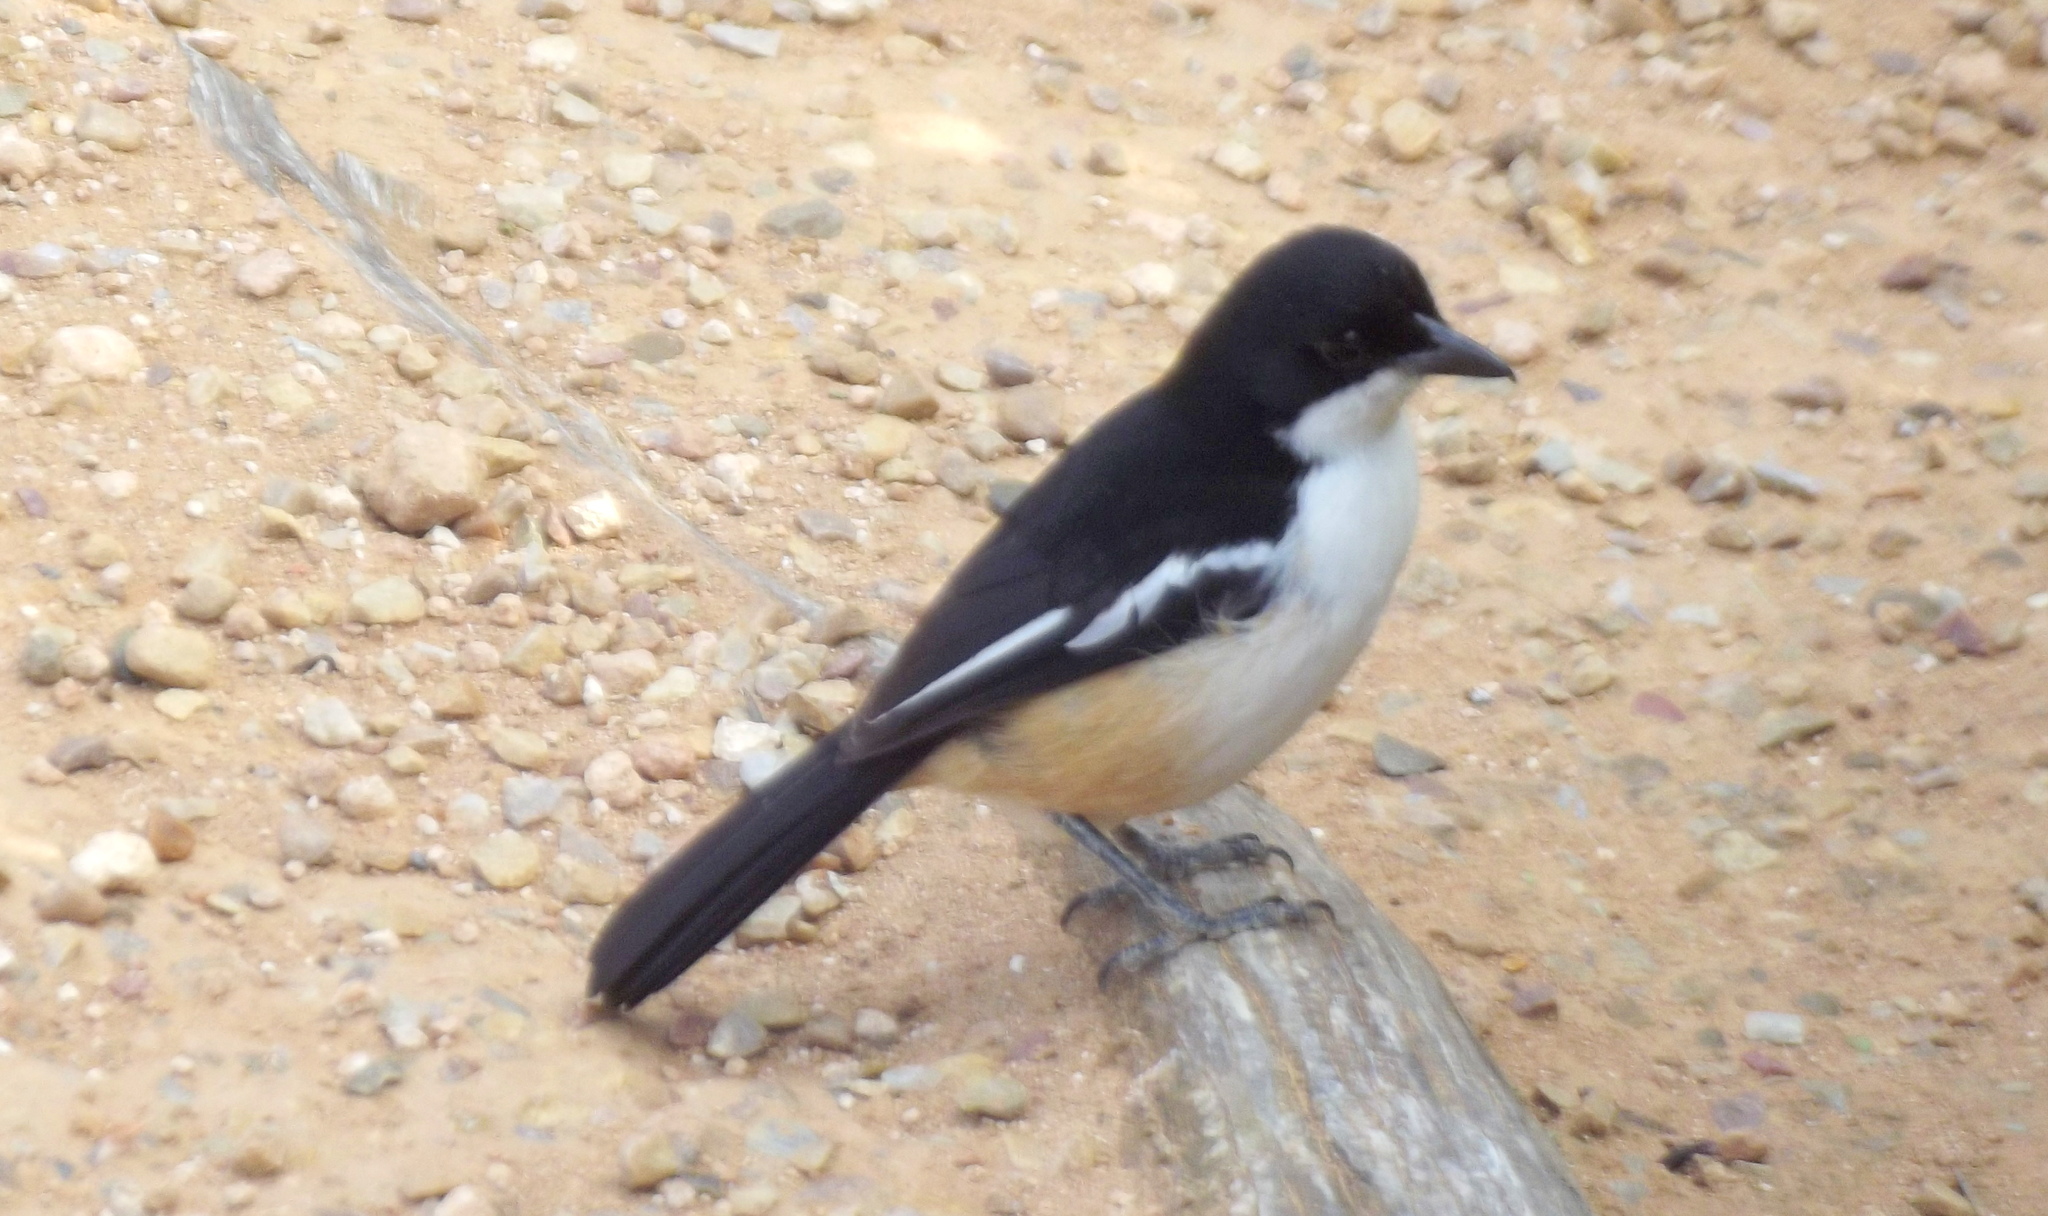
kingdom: Animalia
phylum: Chordata
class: Aves
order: Passeriformes
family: Malaconotidae
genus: Laniarius
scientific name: Laniarius ferrugineus
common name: Southern boubou
